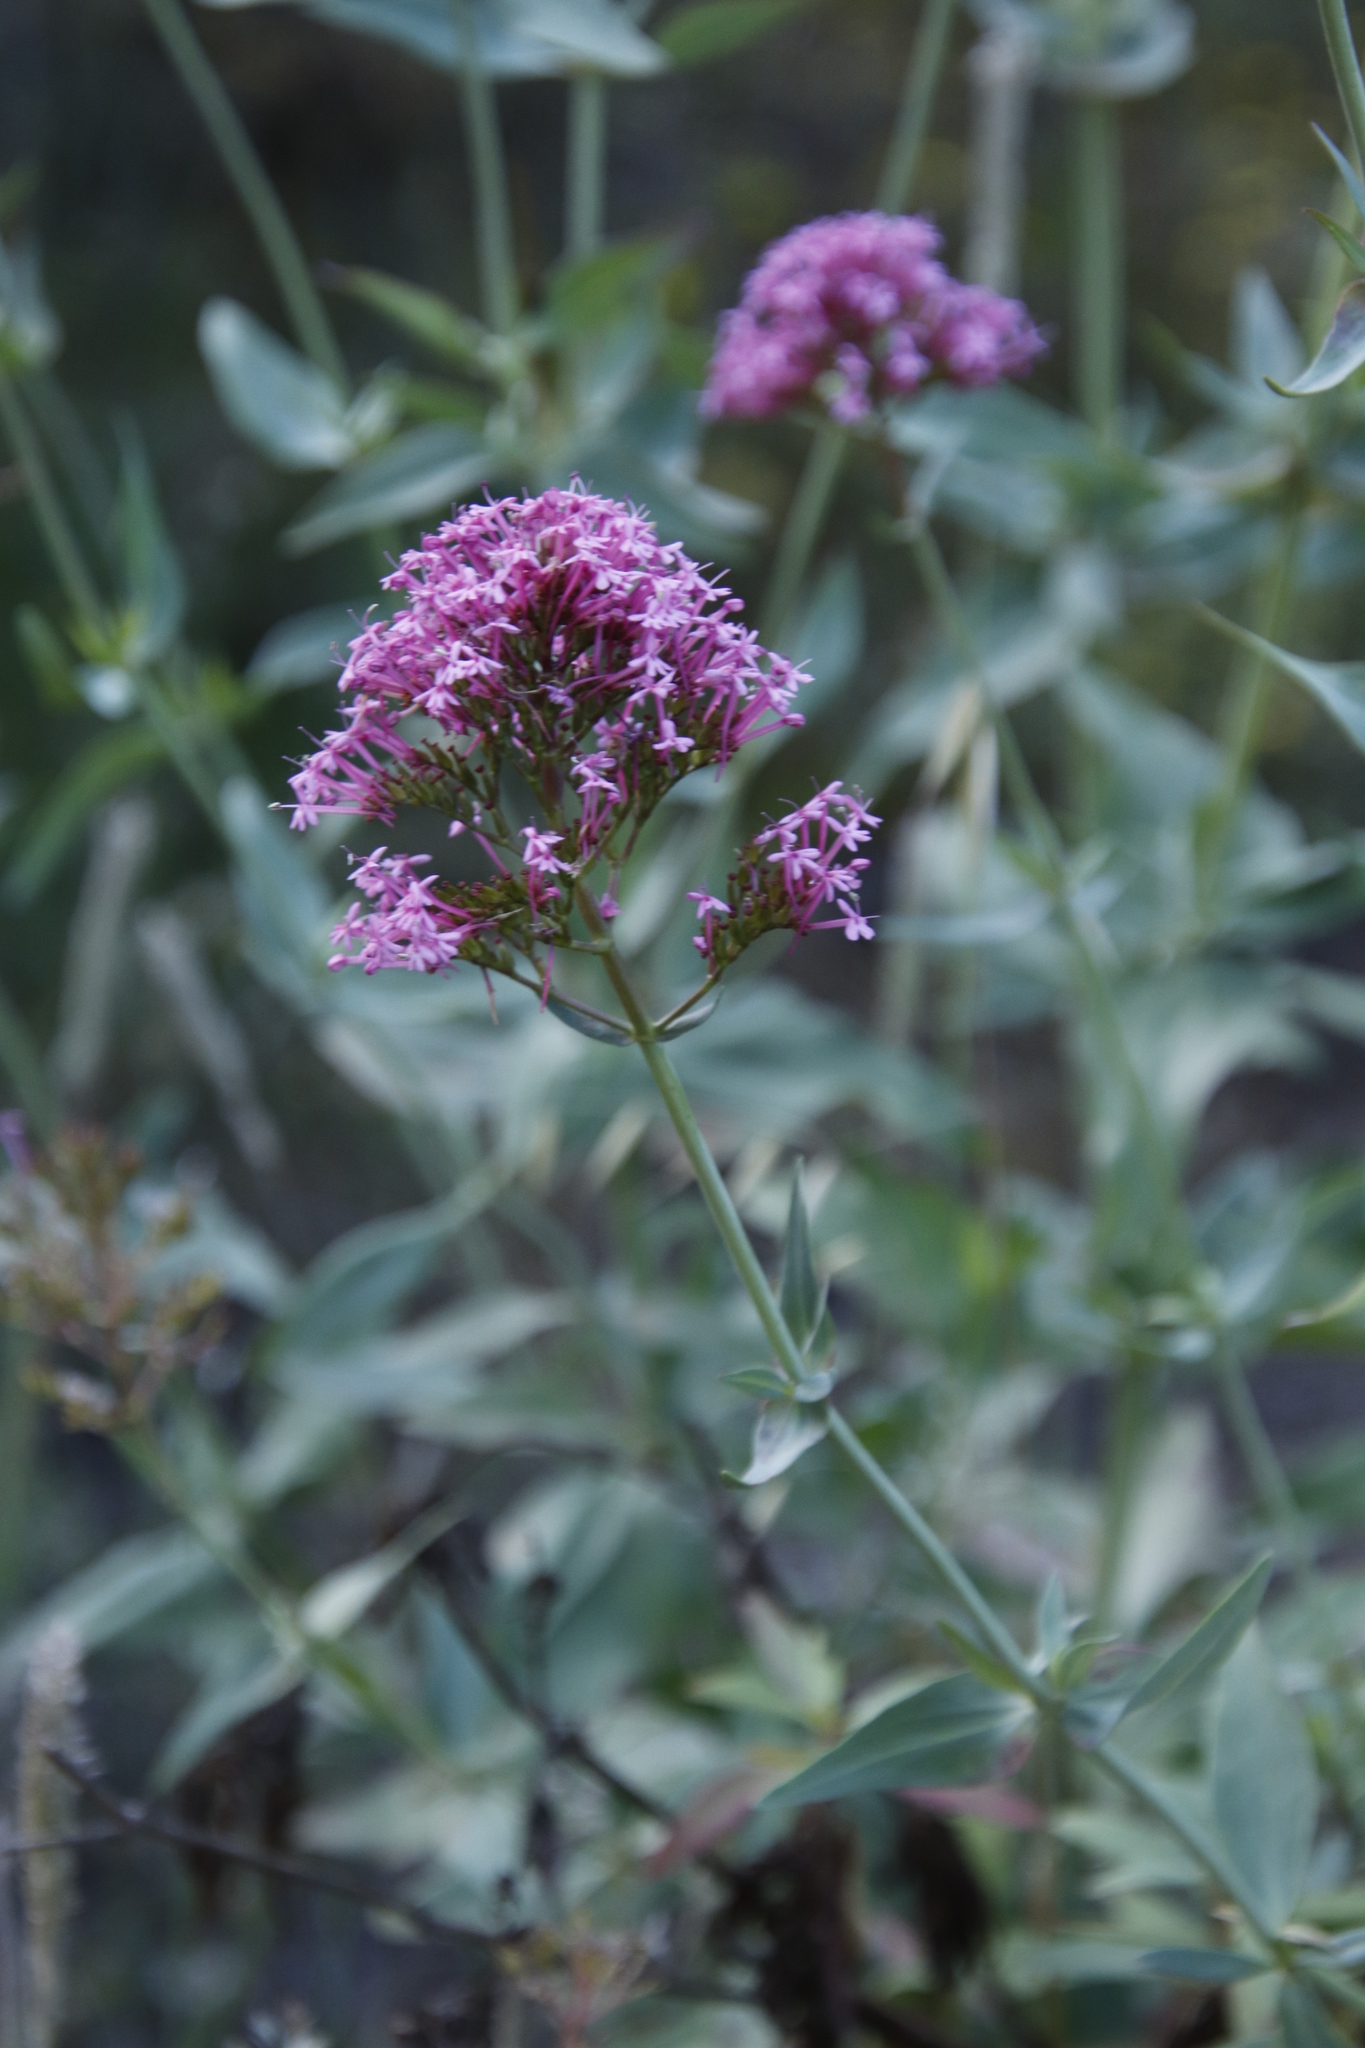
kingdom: Plantae
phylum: Tracheophyta
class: Magnoliopsida
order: Dipsacales
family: Caprifoliaceae
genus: Centranthus
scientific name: Centranthus ruber
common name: Red valerian
